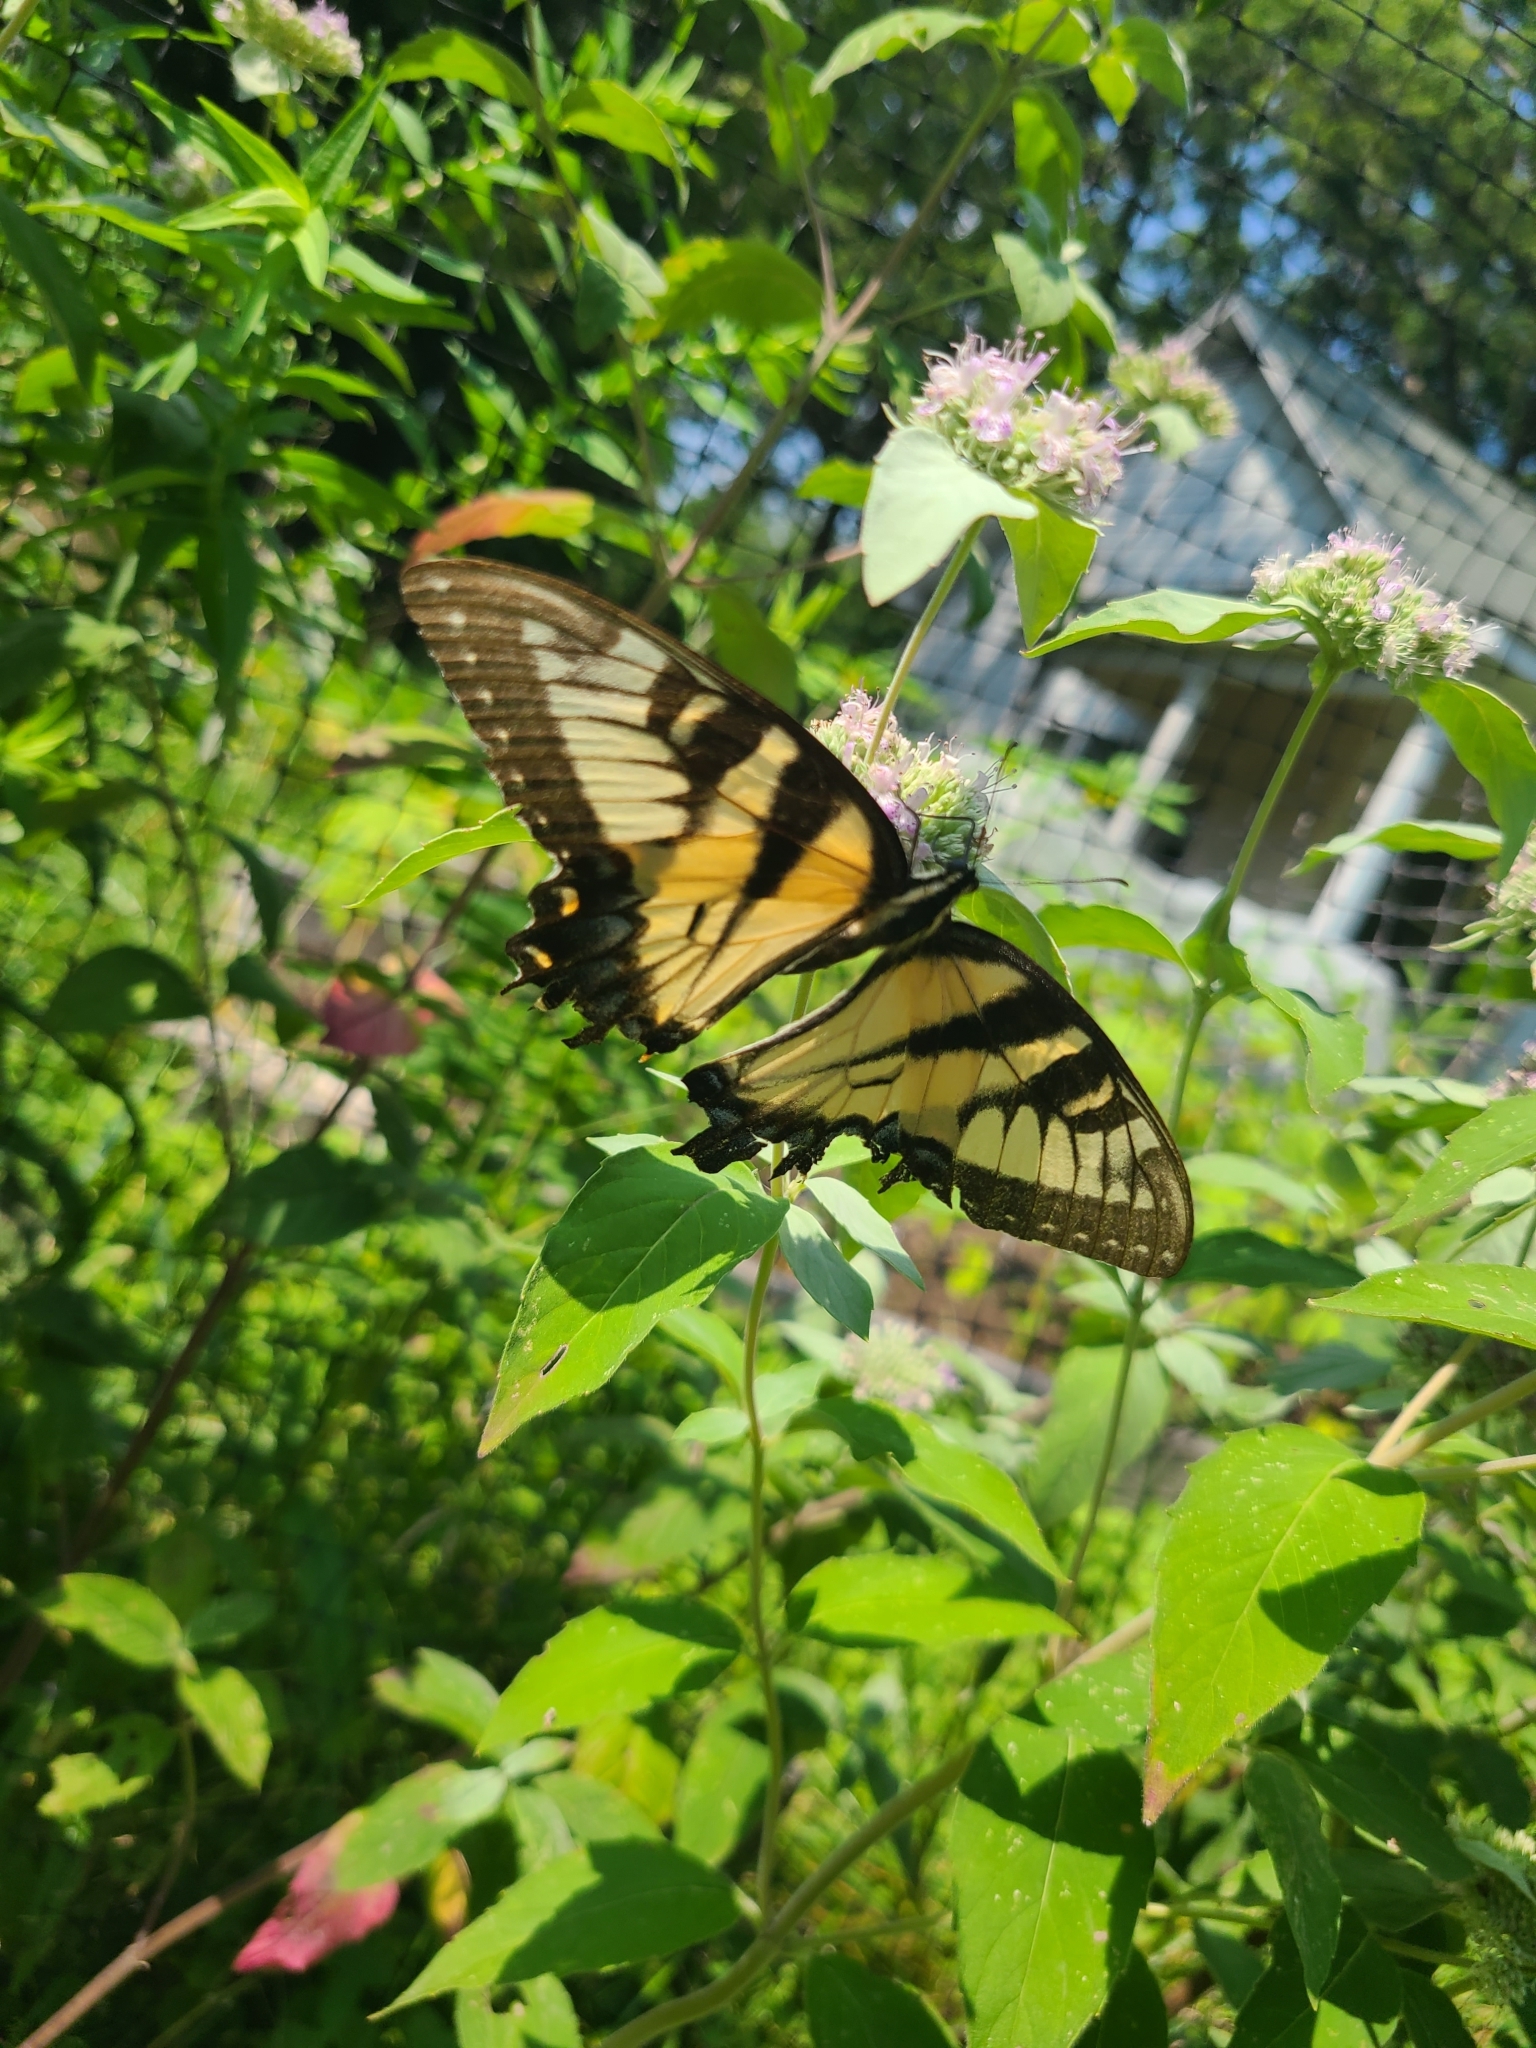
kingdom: Animalia
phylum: Arthropoda
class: Insecta
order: Lepidoptera
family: Papilionidae
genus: Papilio
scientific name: Papilio glaucus
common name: Tiger swallowtail
